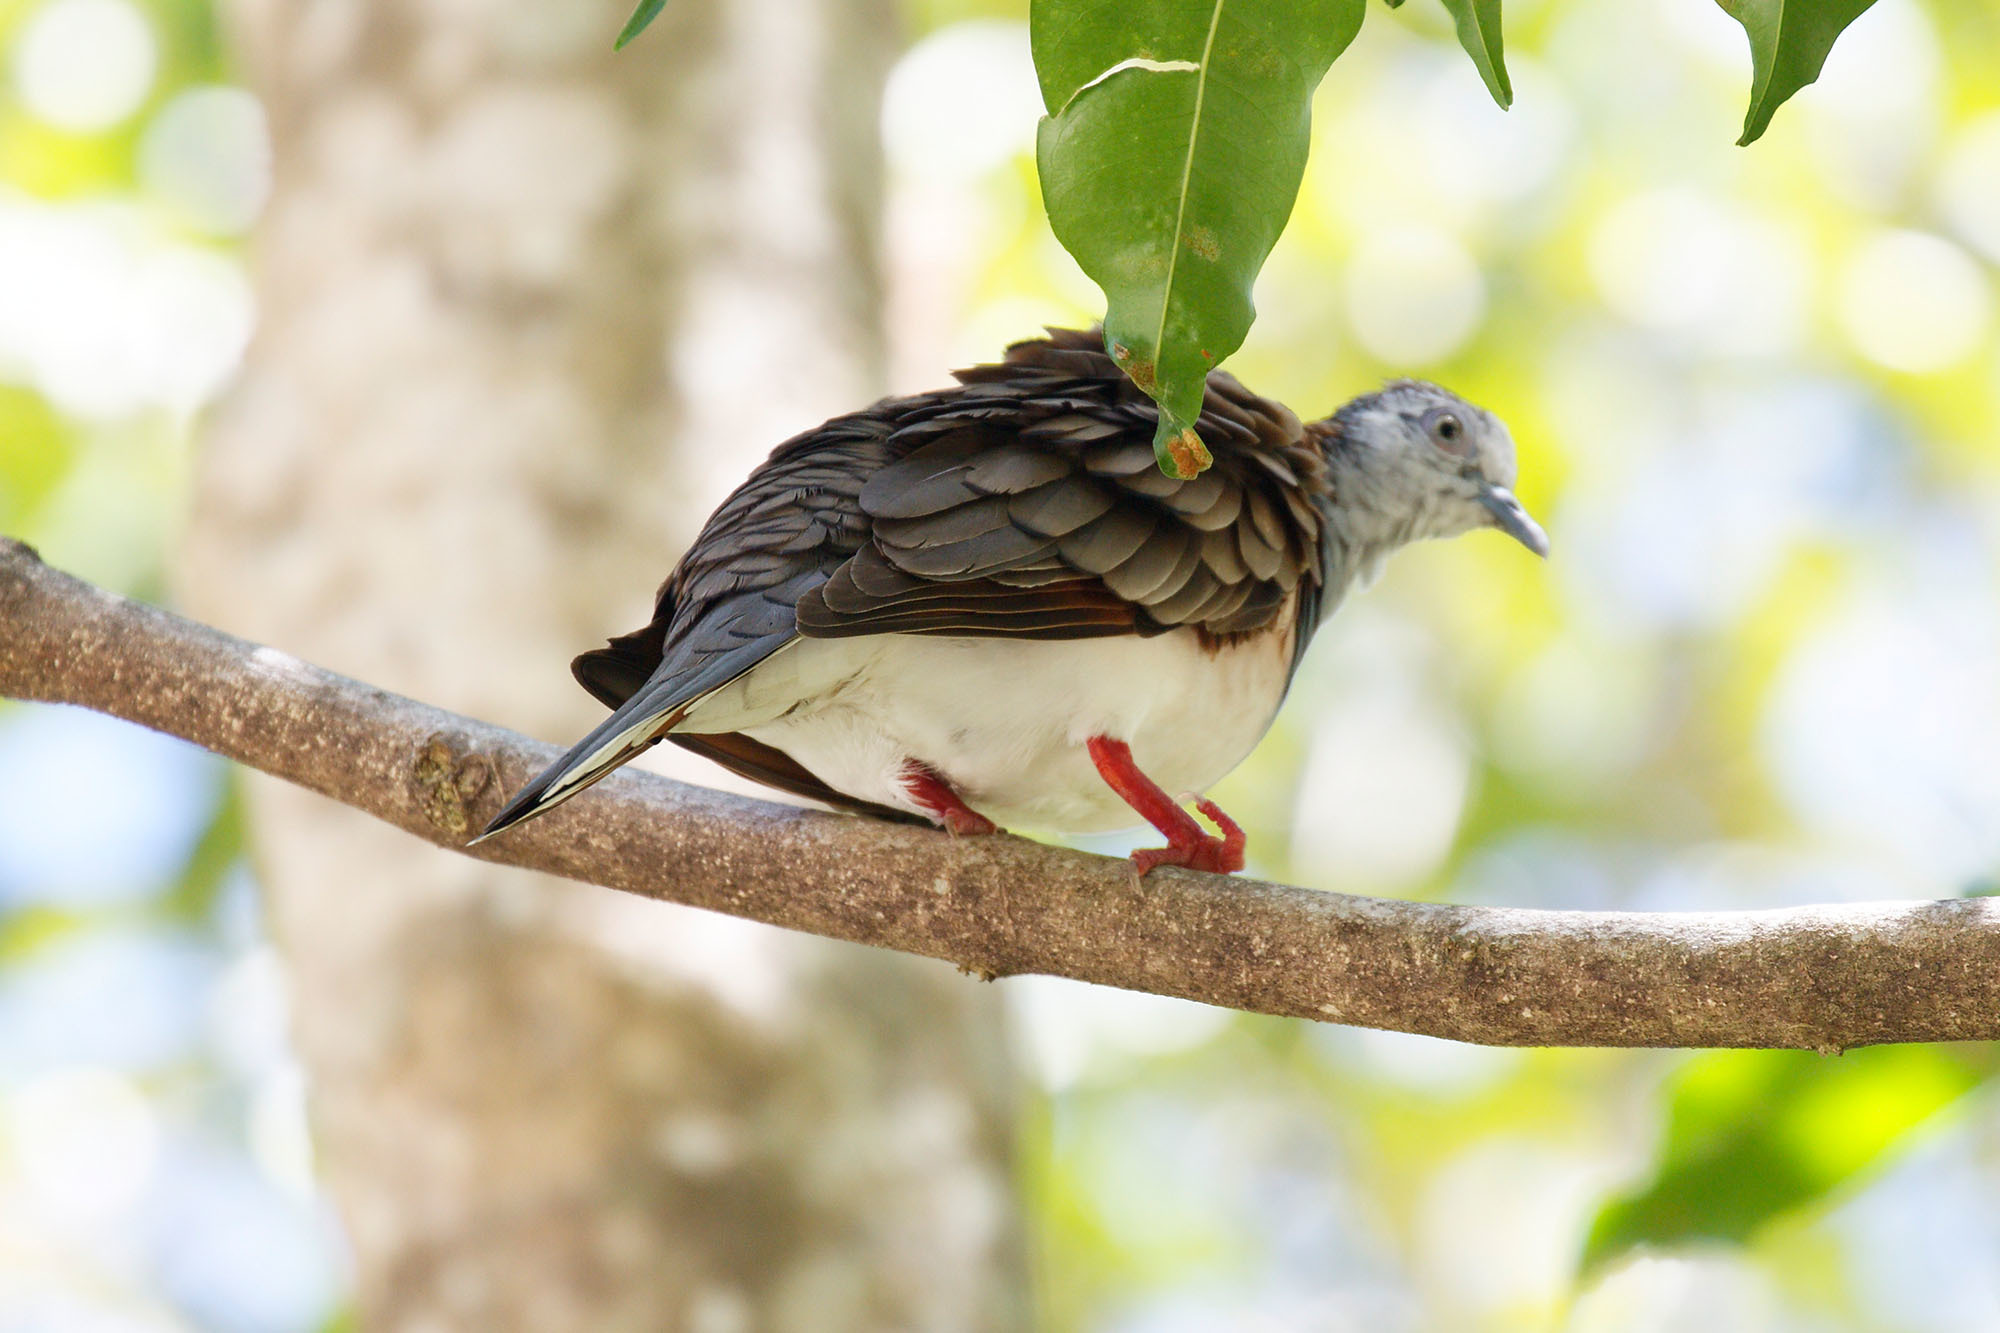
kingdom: Animalia
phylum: Chordata
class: Aves
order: Columbiformes
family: Columbidae
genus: Geopelia
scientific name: Geopelia humeralis
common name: Bar-shouldered dove
